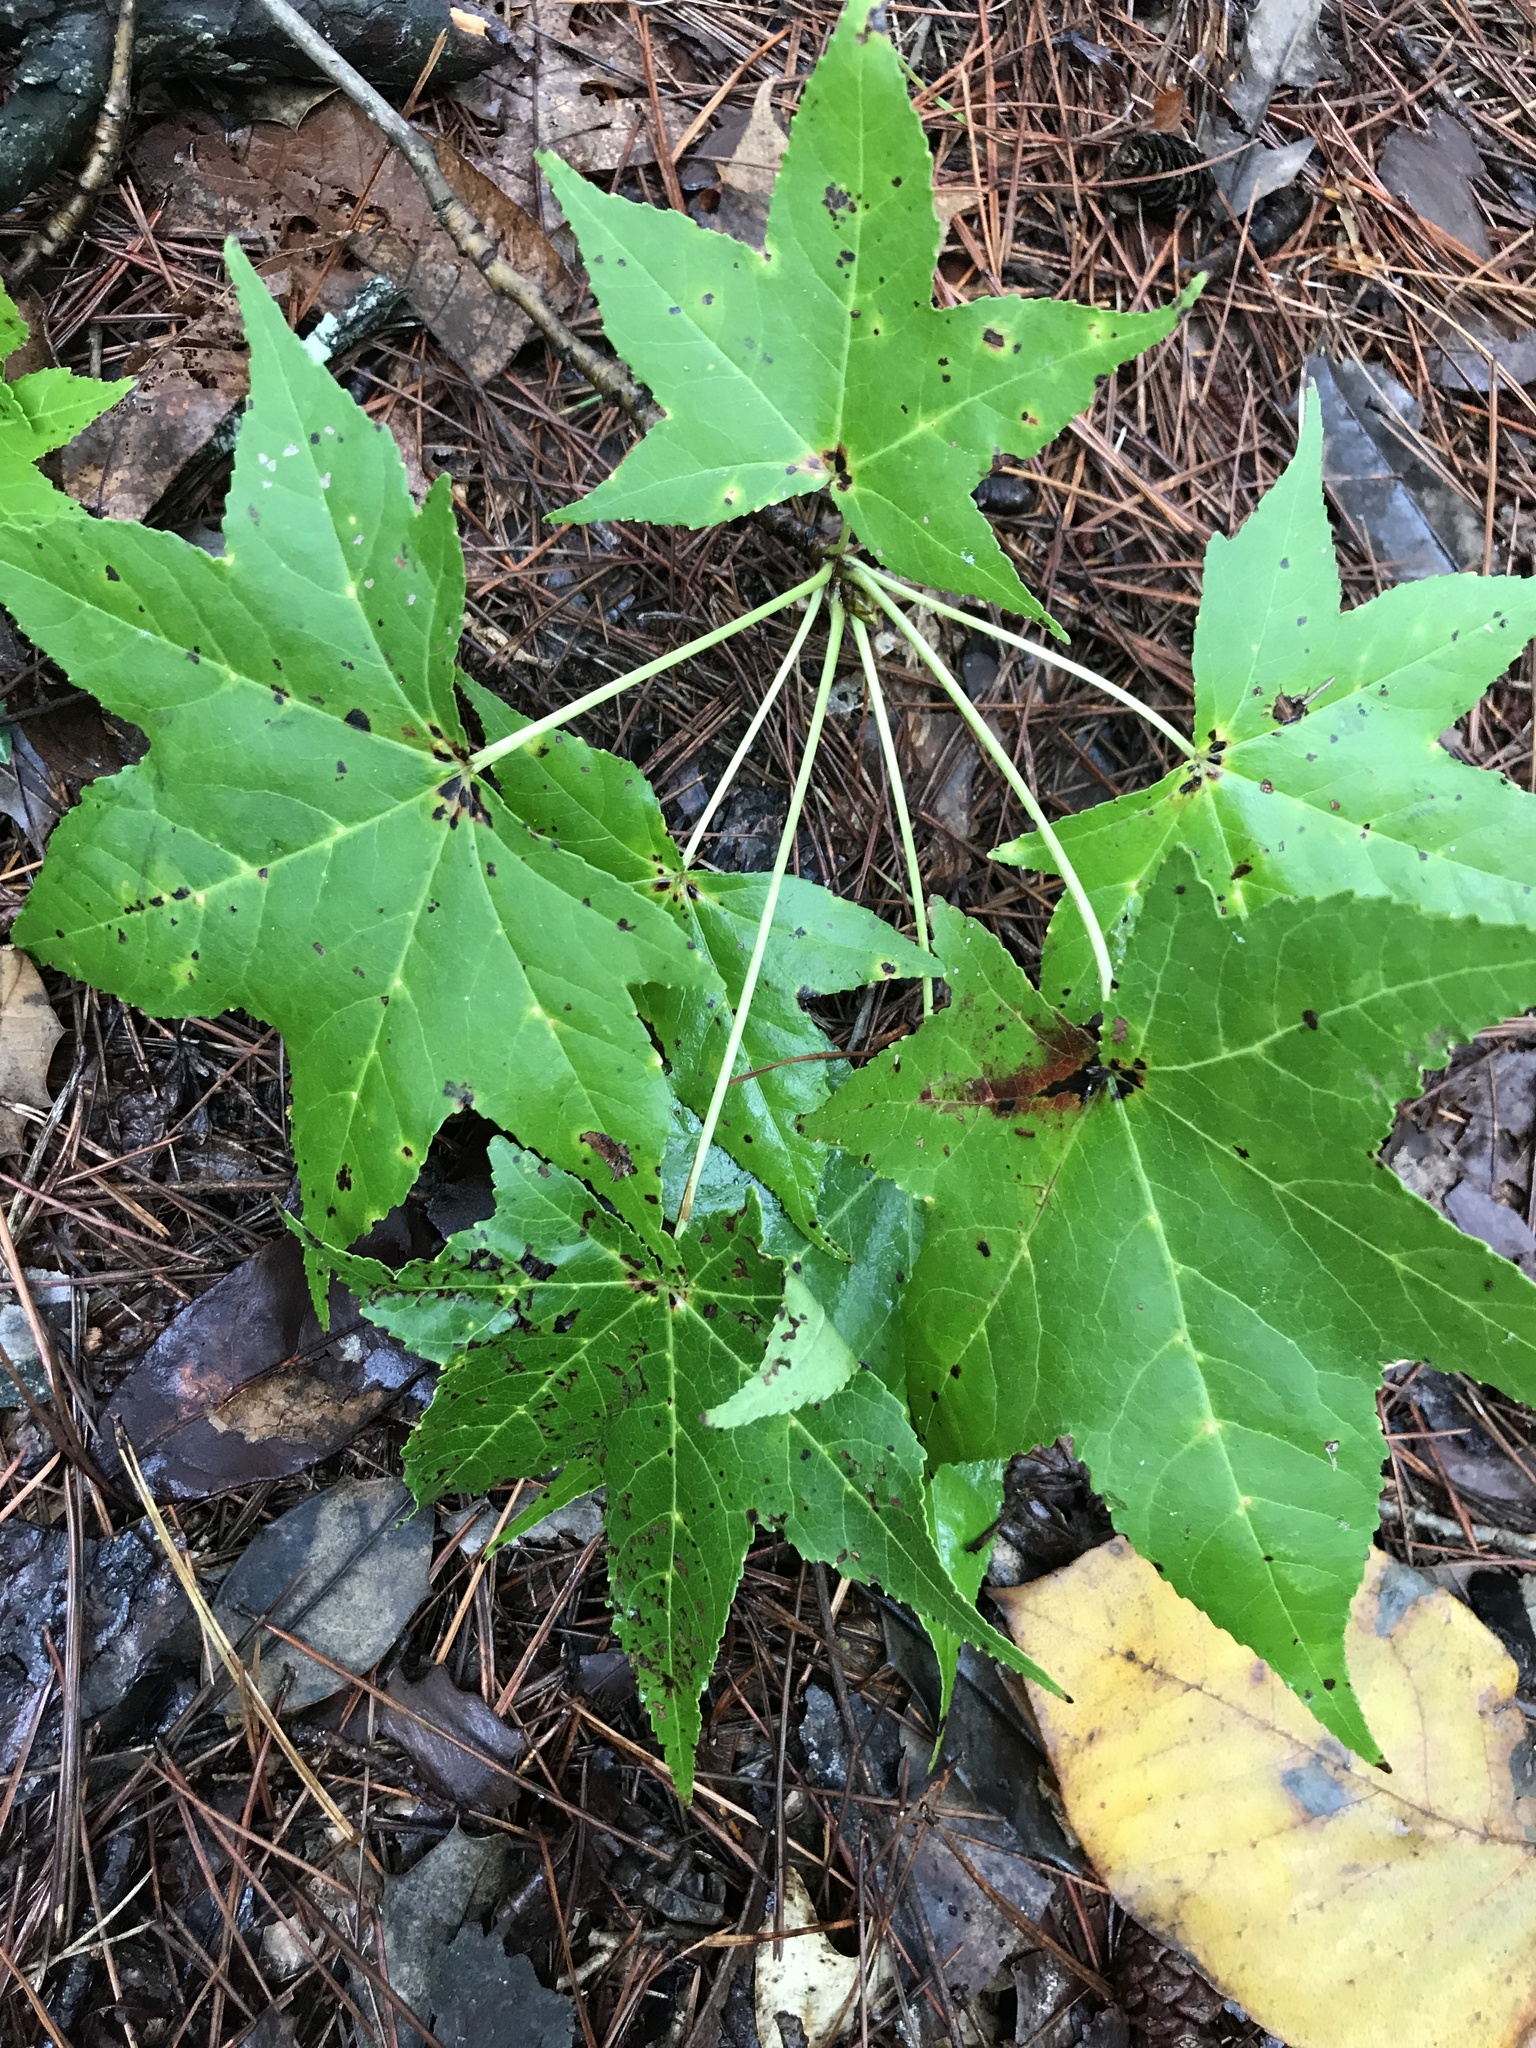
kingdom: Plantae
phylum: Tracheophyta
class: Magnoliopsida
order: Saxifragales
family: Altingiaceae
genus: Liquidambar
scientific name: Liquidambar styraciflua
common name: Sweet gum
